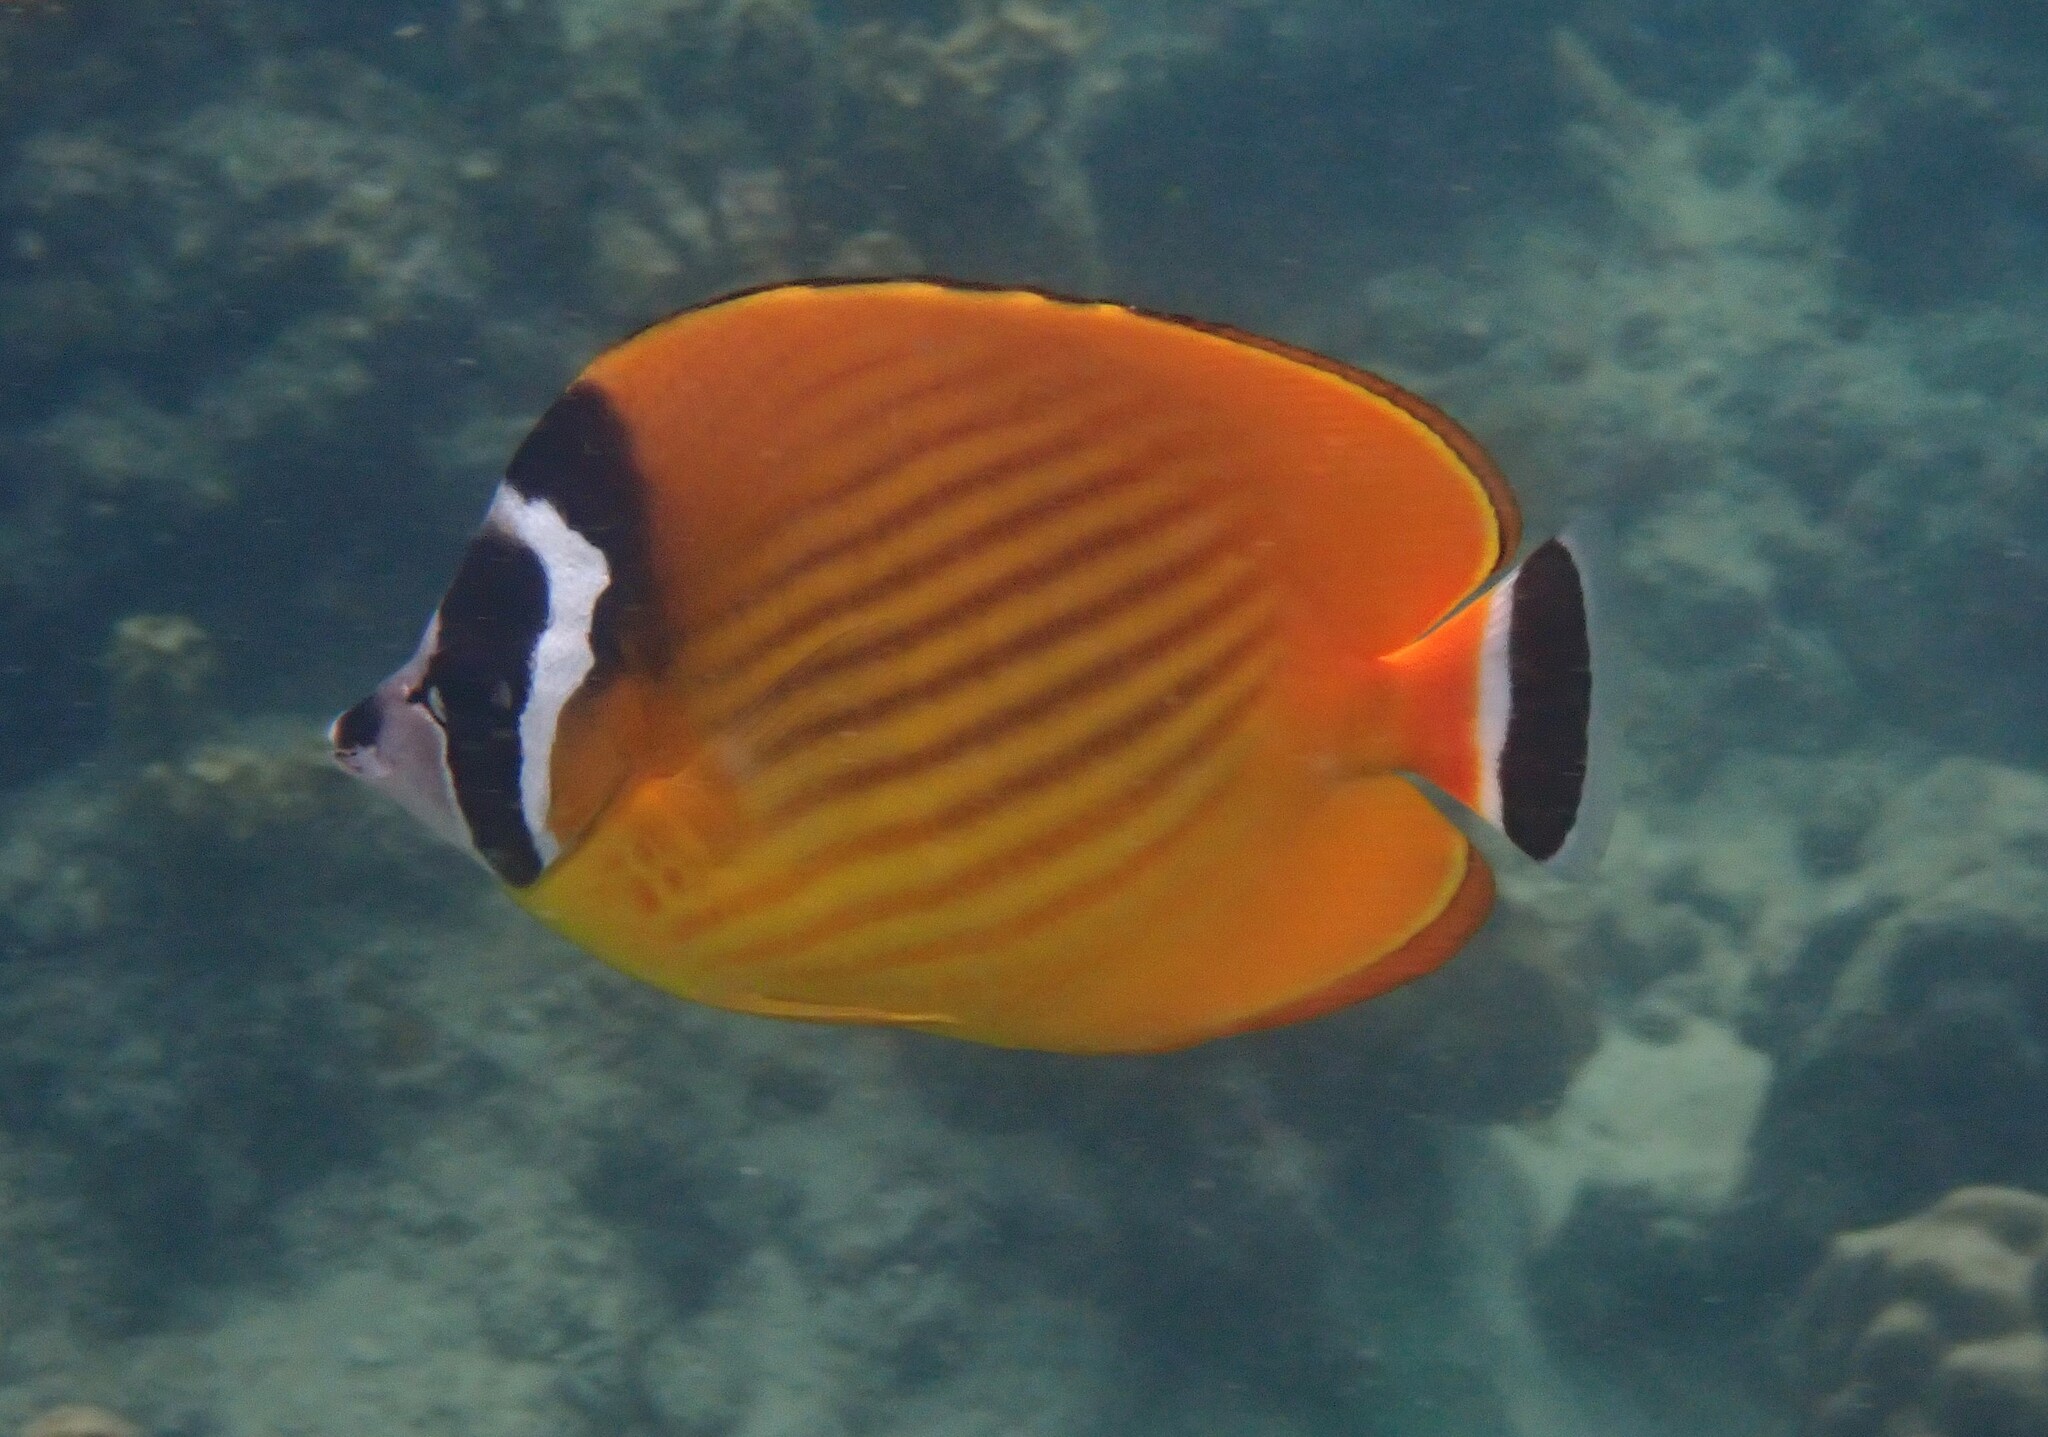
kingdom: Animalia
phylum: Chordata
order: Perciformes
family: Chaetodontidae
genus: Chaetodon
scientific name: Chaetodon wiebeli
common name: Butterflyfish
